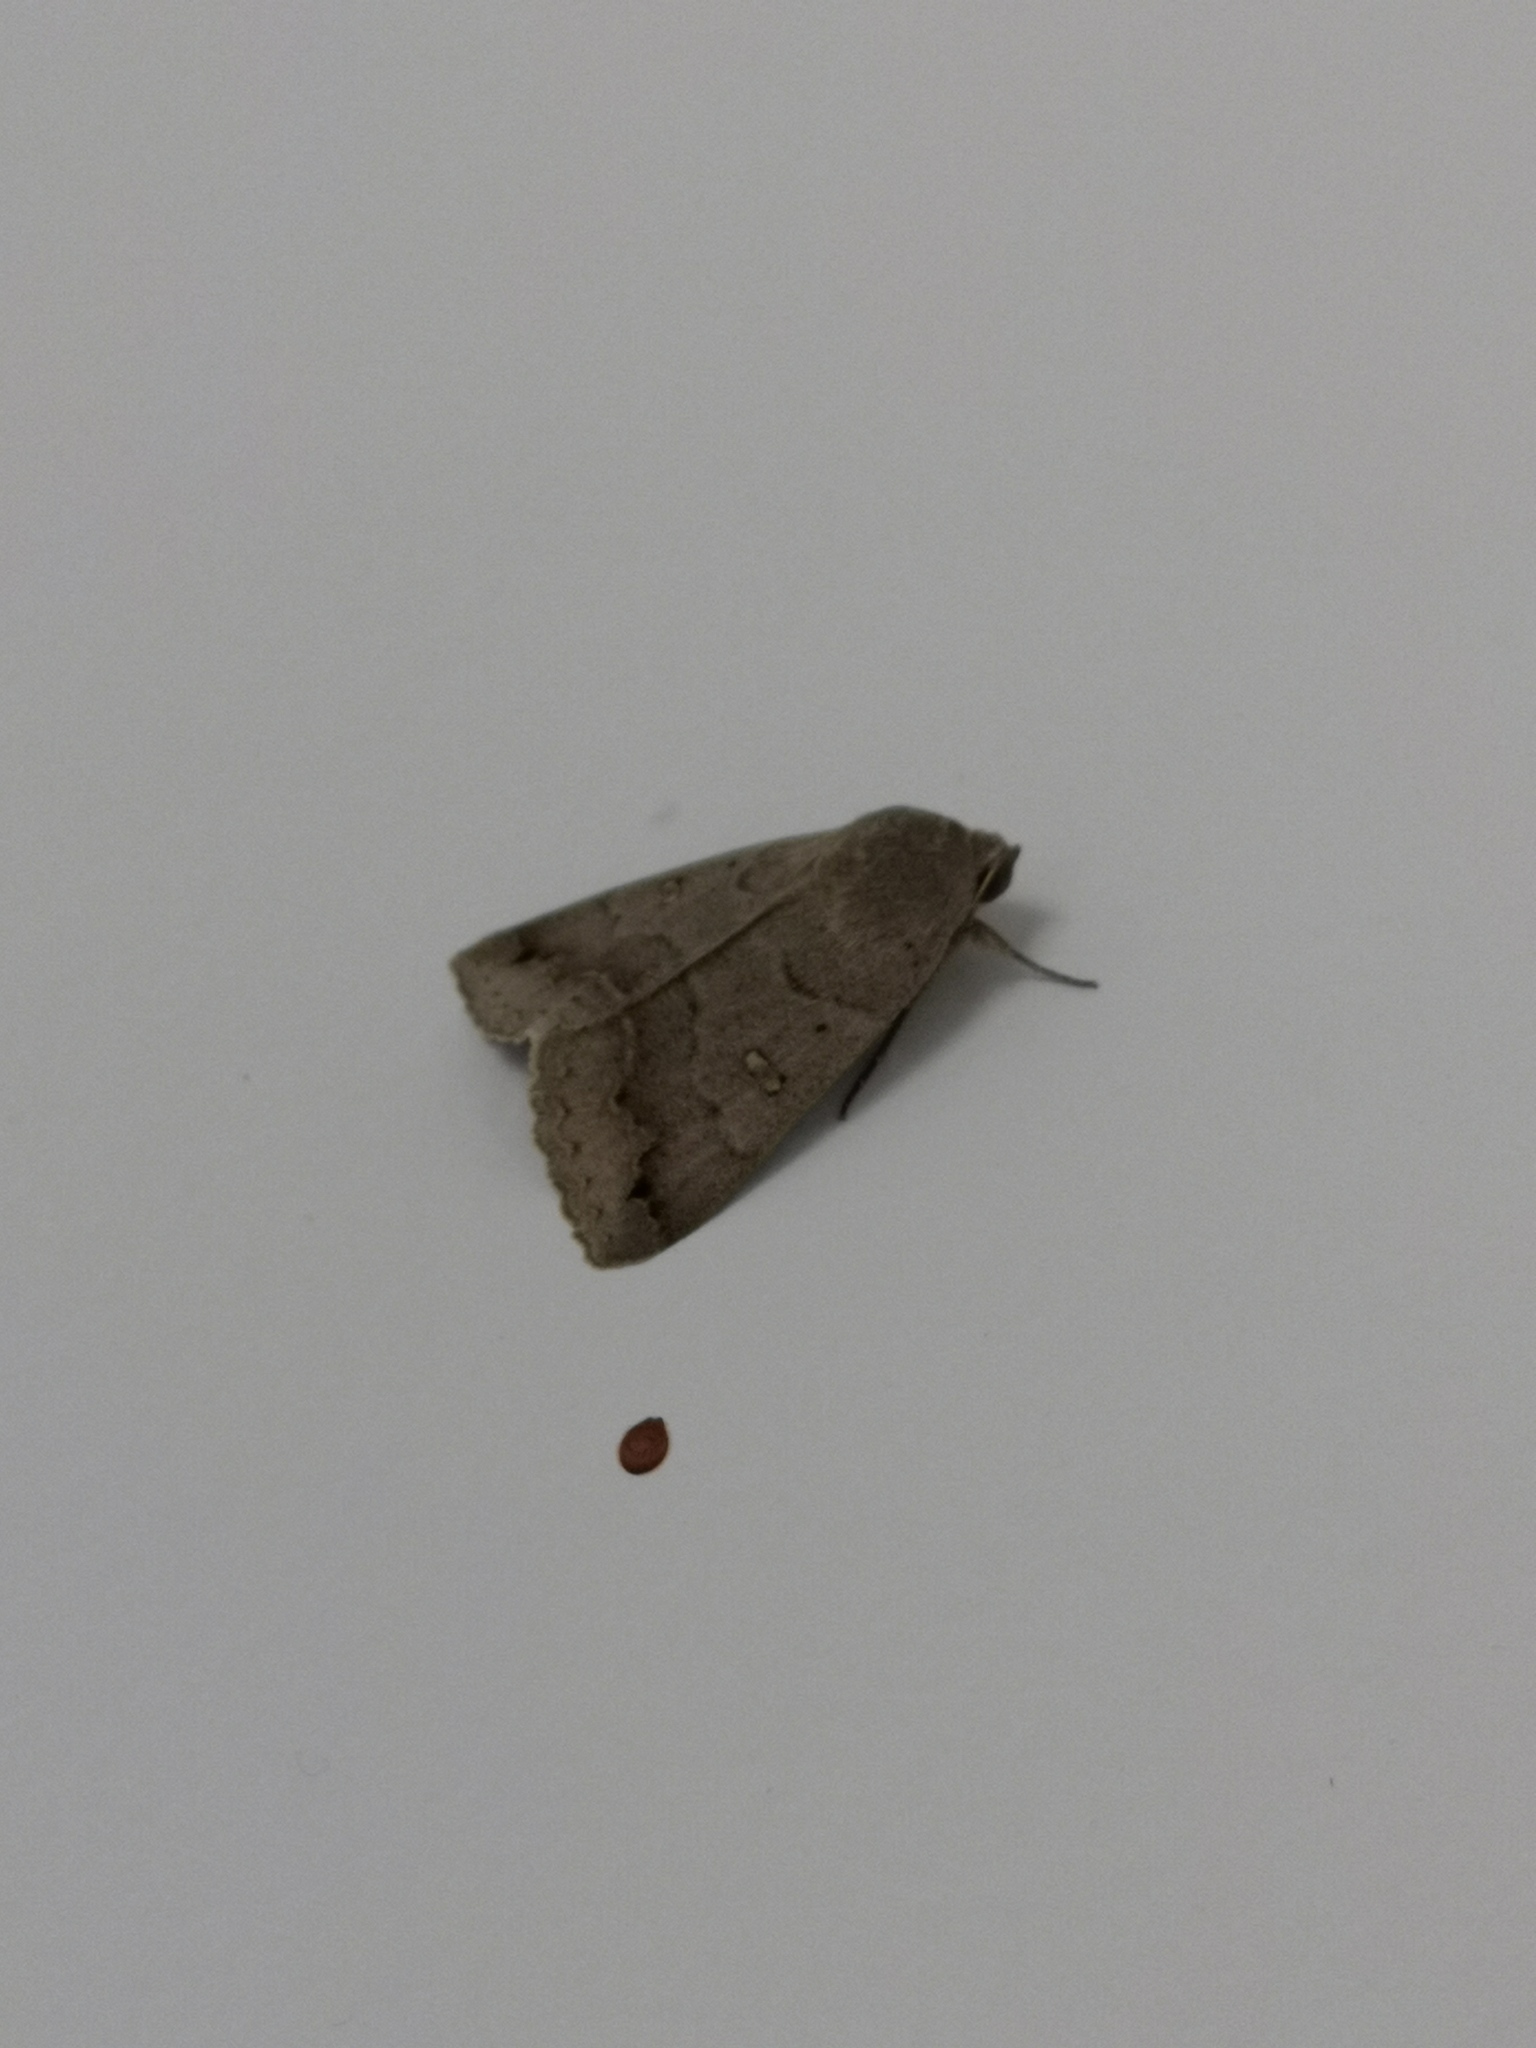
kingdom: Animalia
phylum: Arthropoda
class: Insecta
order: Lepidoptera
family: Erebidae
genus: Clytie
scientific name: Clytie syriaca
